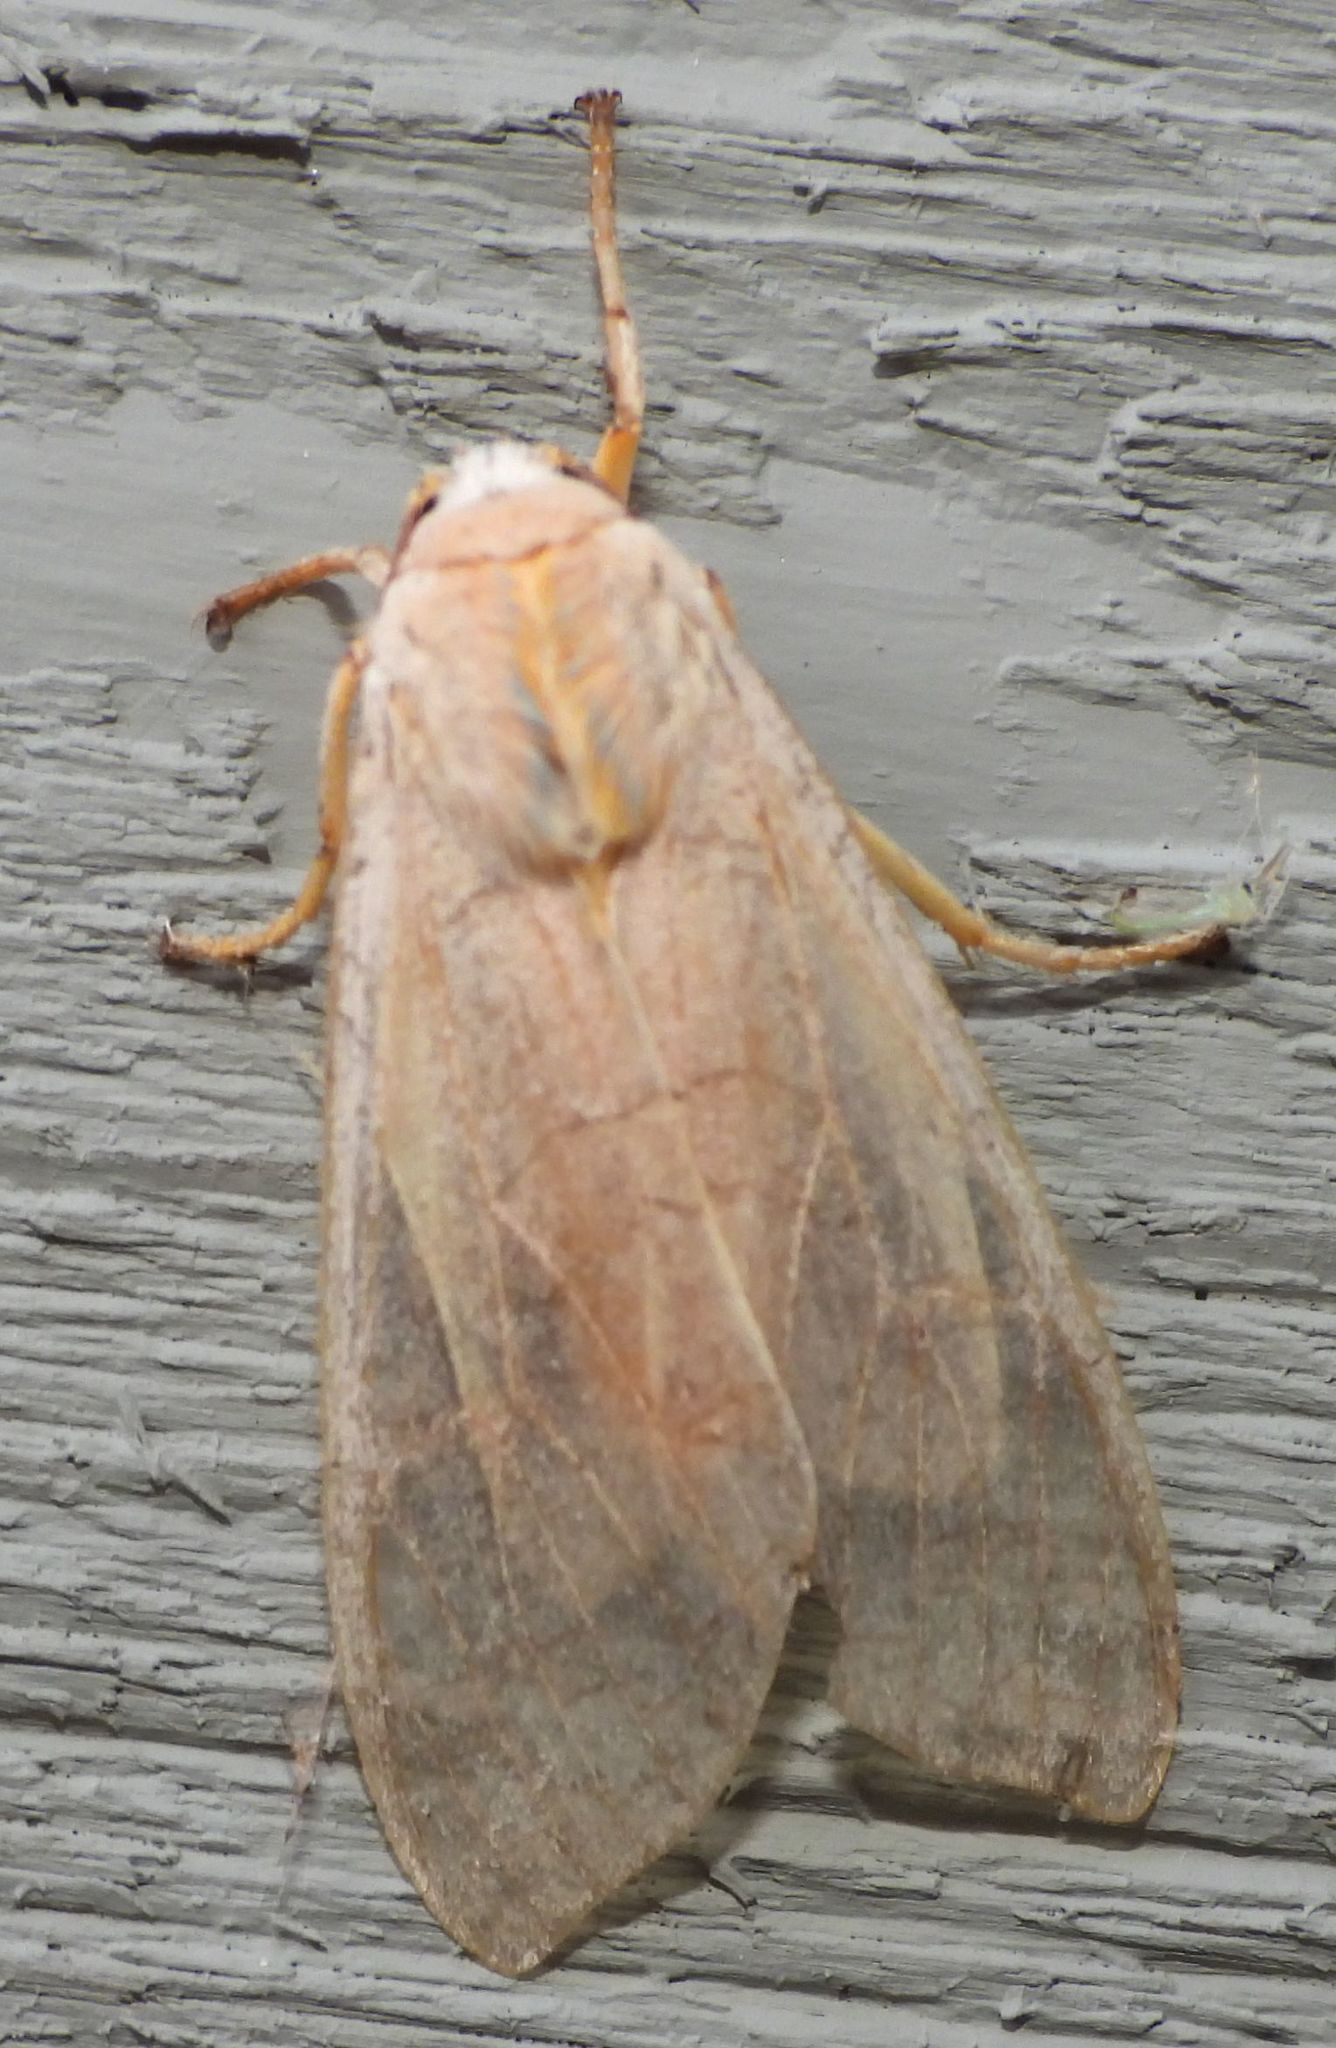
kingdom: Animalia
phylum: Arthropoda
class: Insecta
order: Lepidoptera
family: Erebidae
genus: Halysidota
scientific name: Halysidota tessellaris
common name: Banded tussock moth
